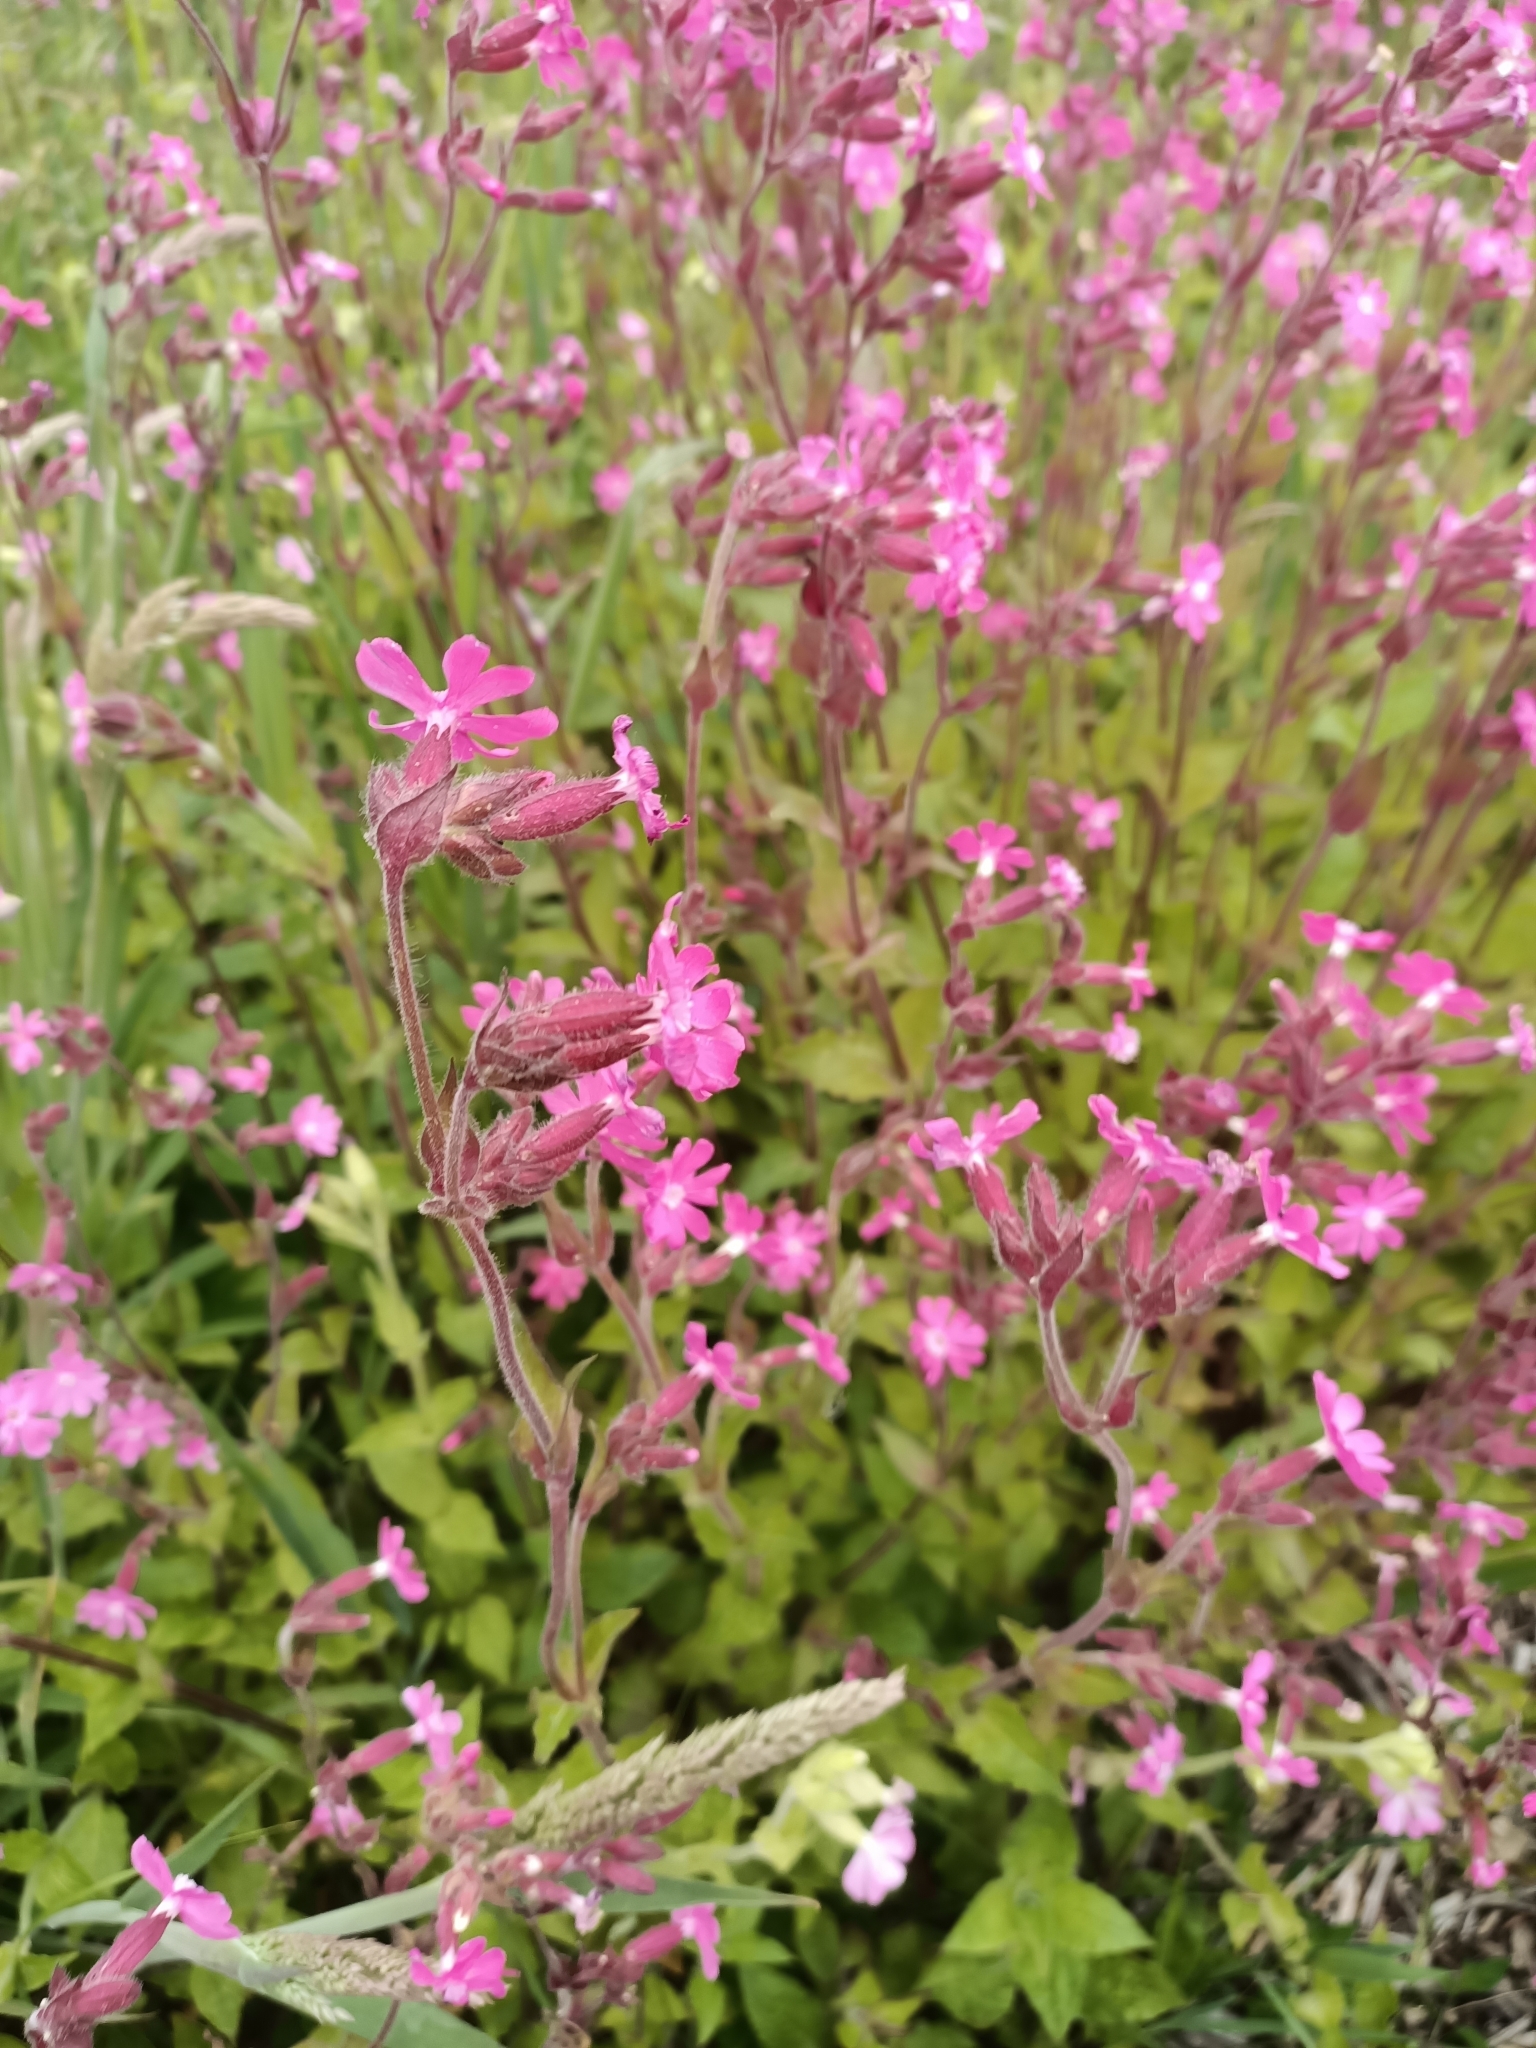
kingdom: Plantae
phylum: Tracheophyta
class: Magnoliopsida
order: Caryophyllales
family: Caryophyllaceae
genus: Silene
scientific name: Silene dioica
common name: Red campion
